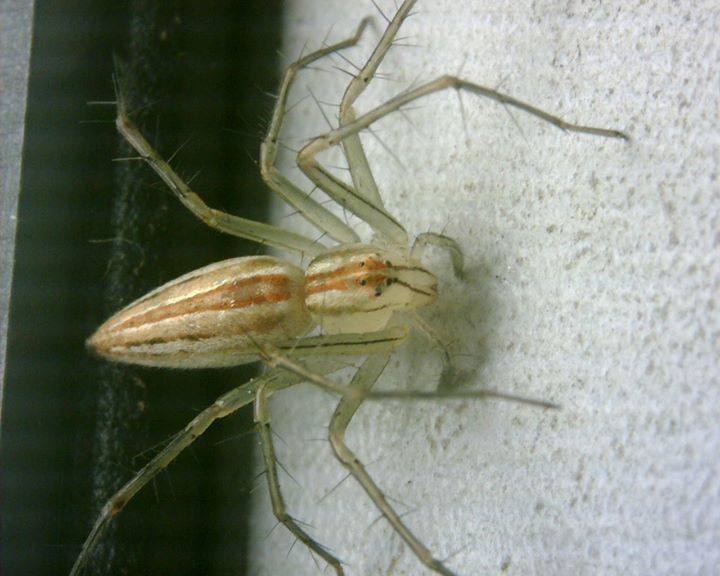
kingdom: Animalia
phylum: Arthropoda
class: Arachnida
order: Araneae
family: Oxyopidae
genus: Oxyopes
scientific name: Oxyopes macilentus
